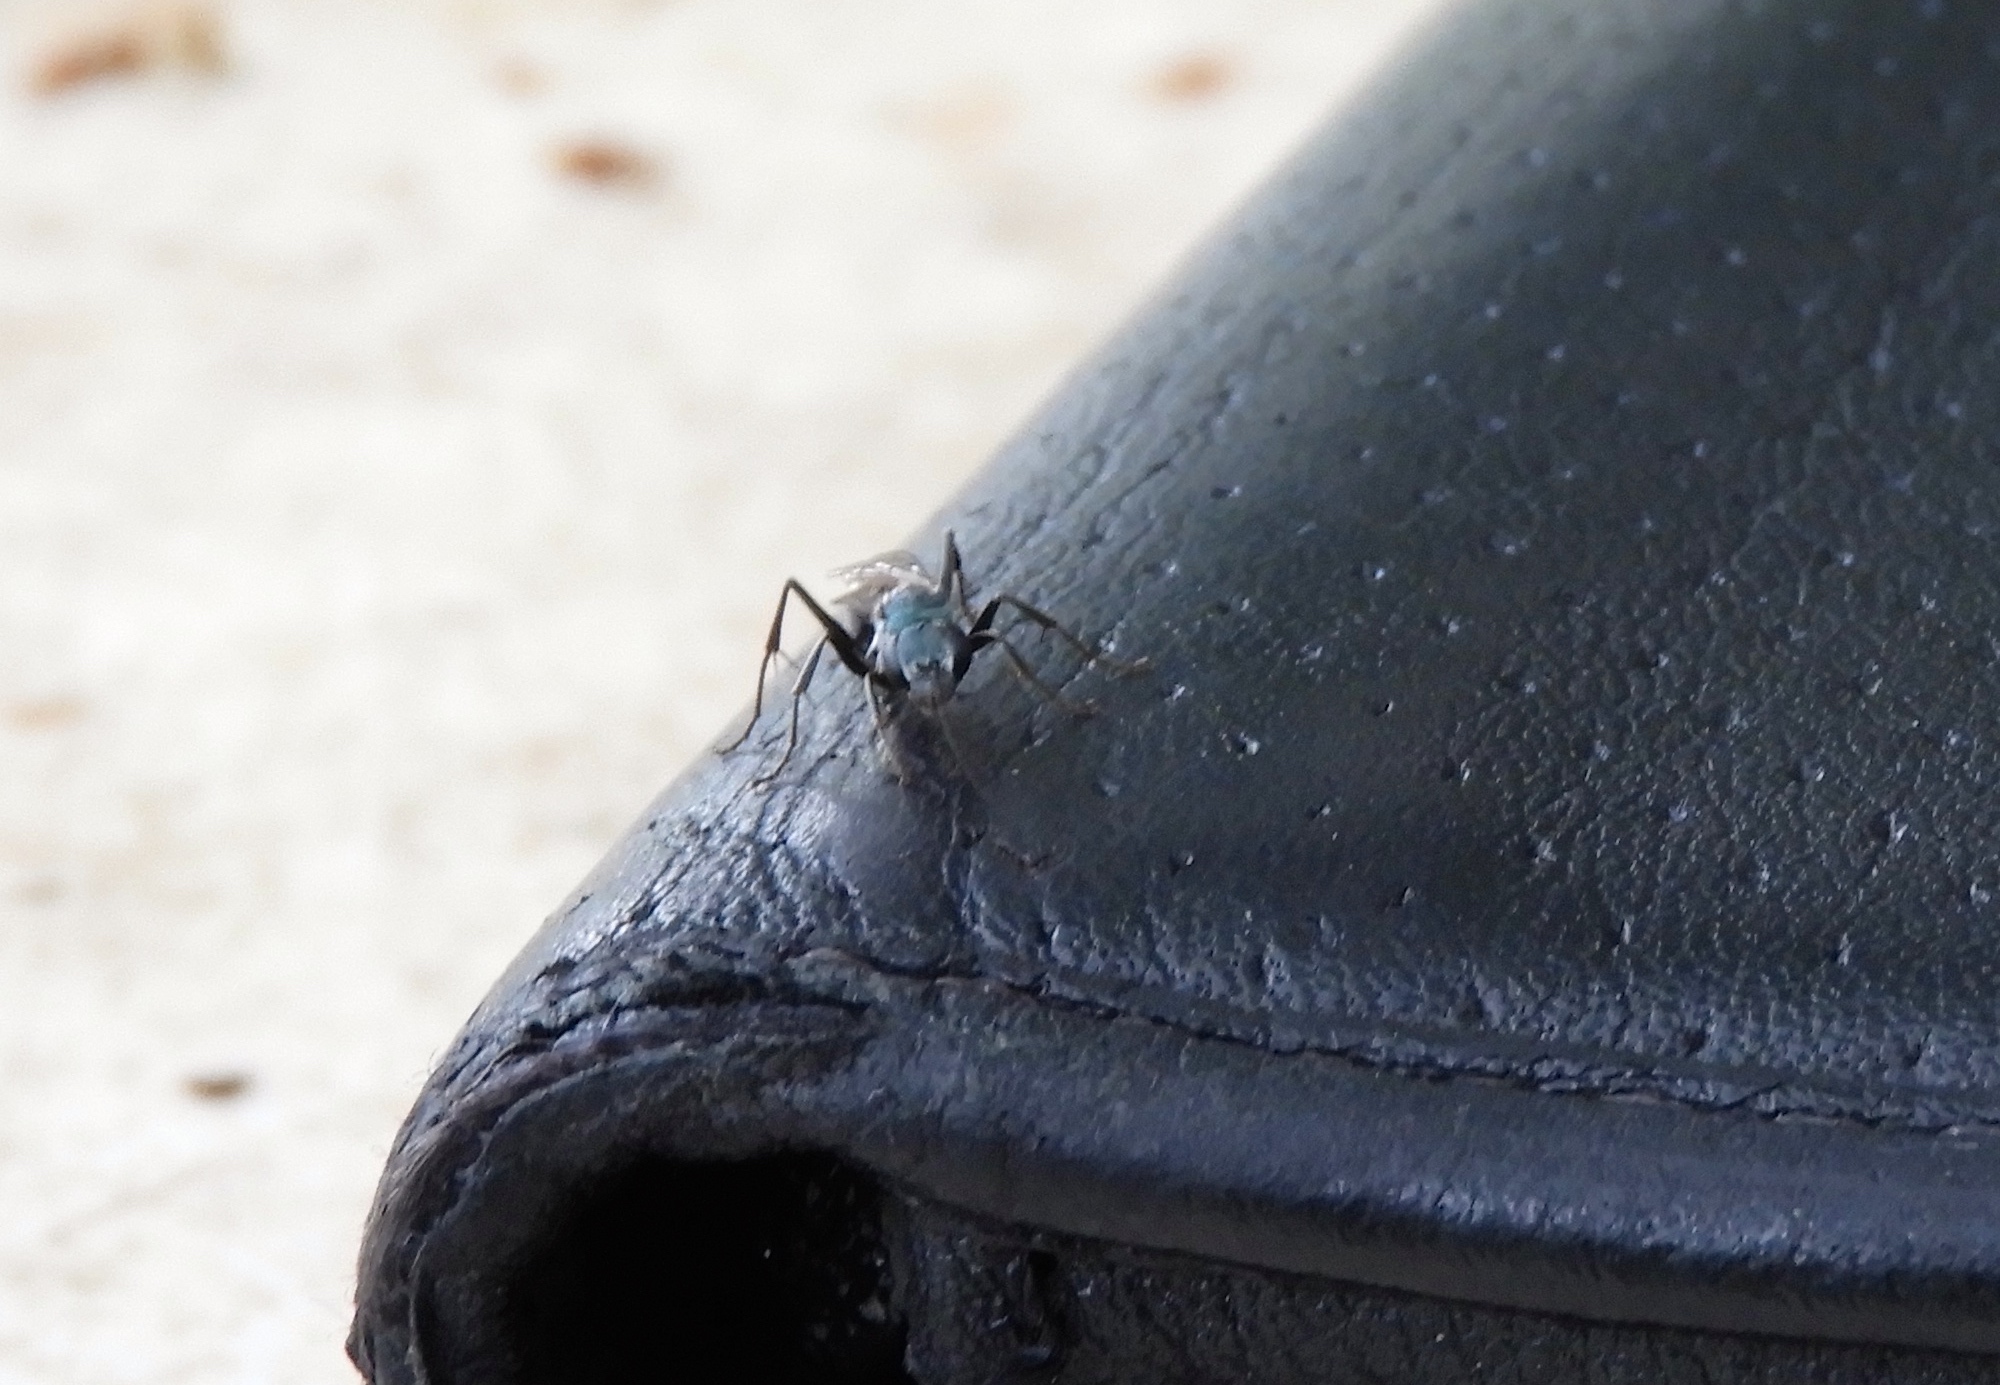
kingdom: Animalia
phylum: Arthropoda
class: Insecta
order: Hymenoptera
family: Pompilidae
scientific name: Pompilidae
